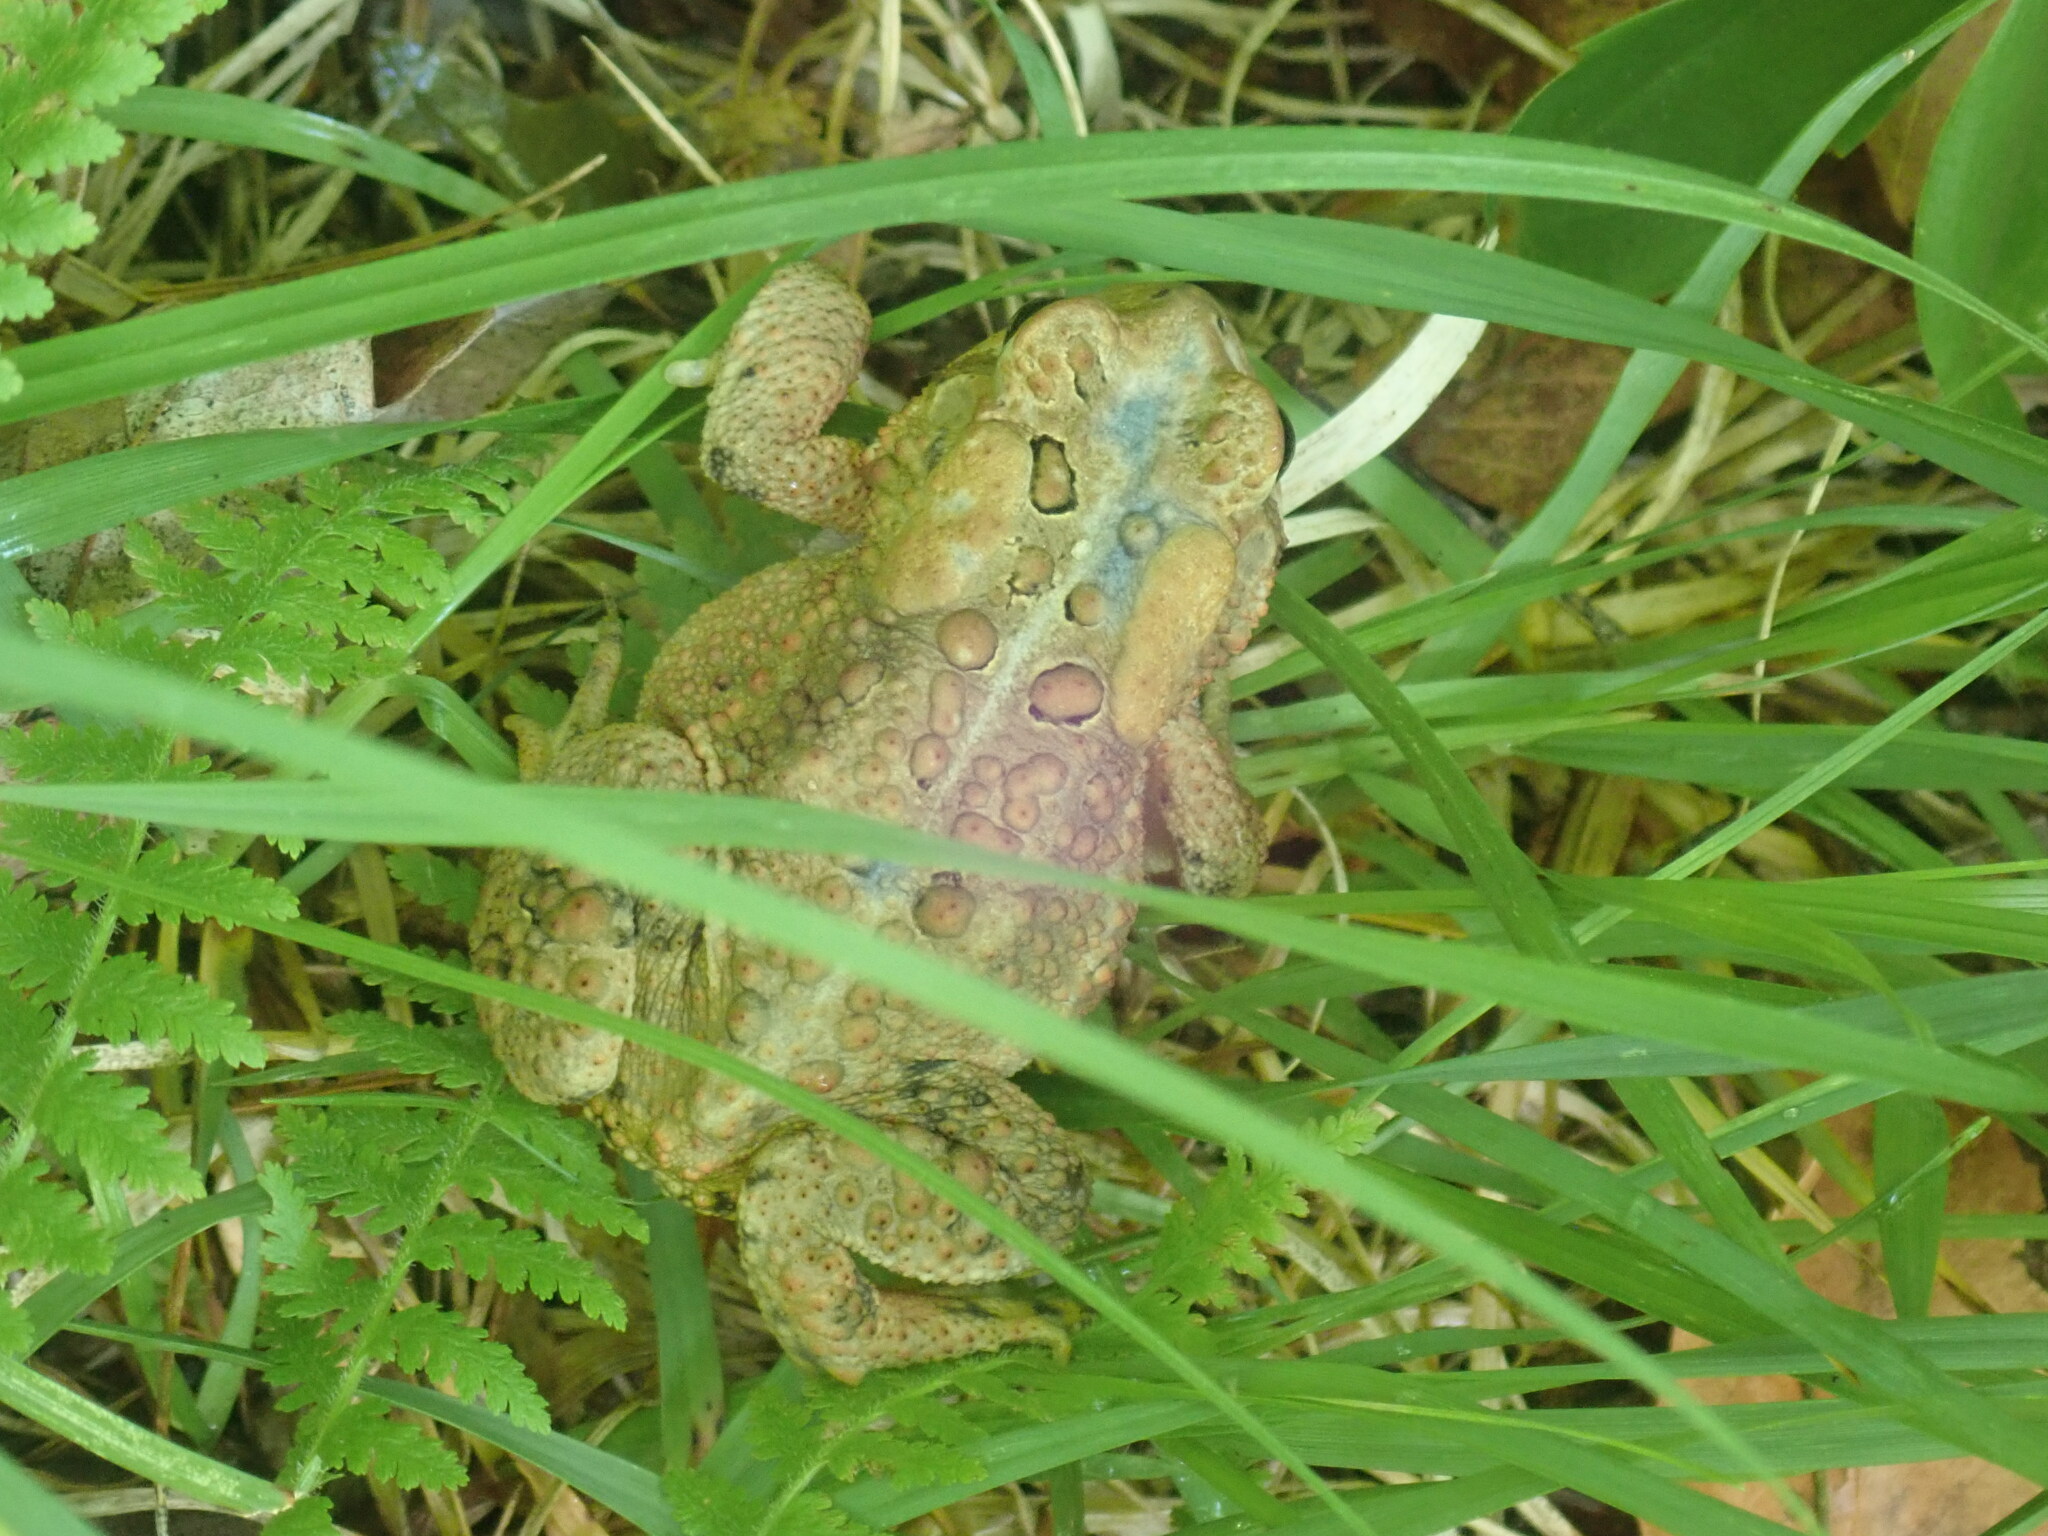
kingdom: Animalia
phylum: Chordata
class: Amphibia
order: Anura
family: Bufonidae
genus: Anaxyrus
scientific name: Anaxyrus americanus
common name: American toad
